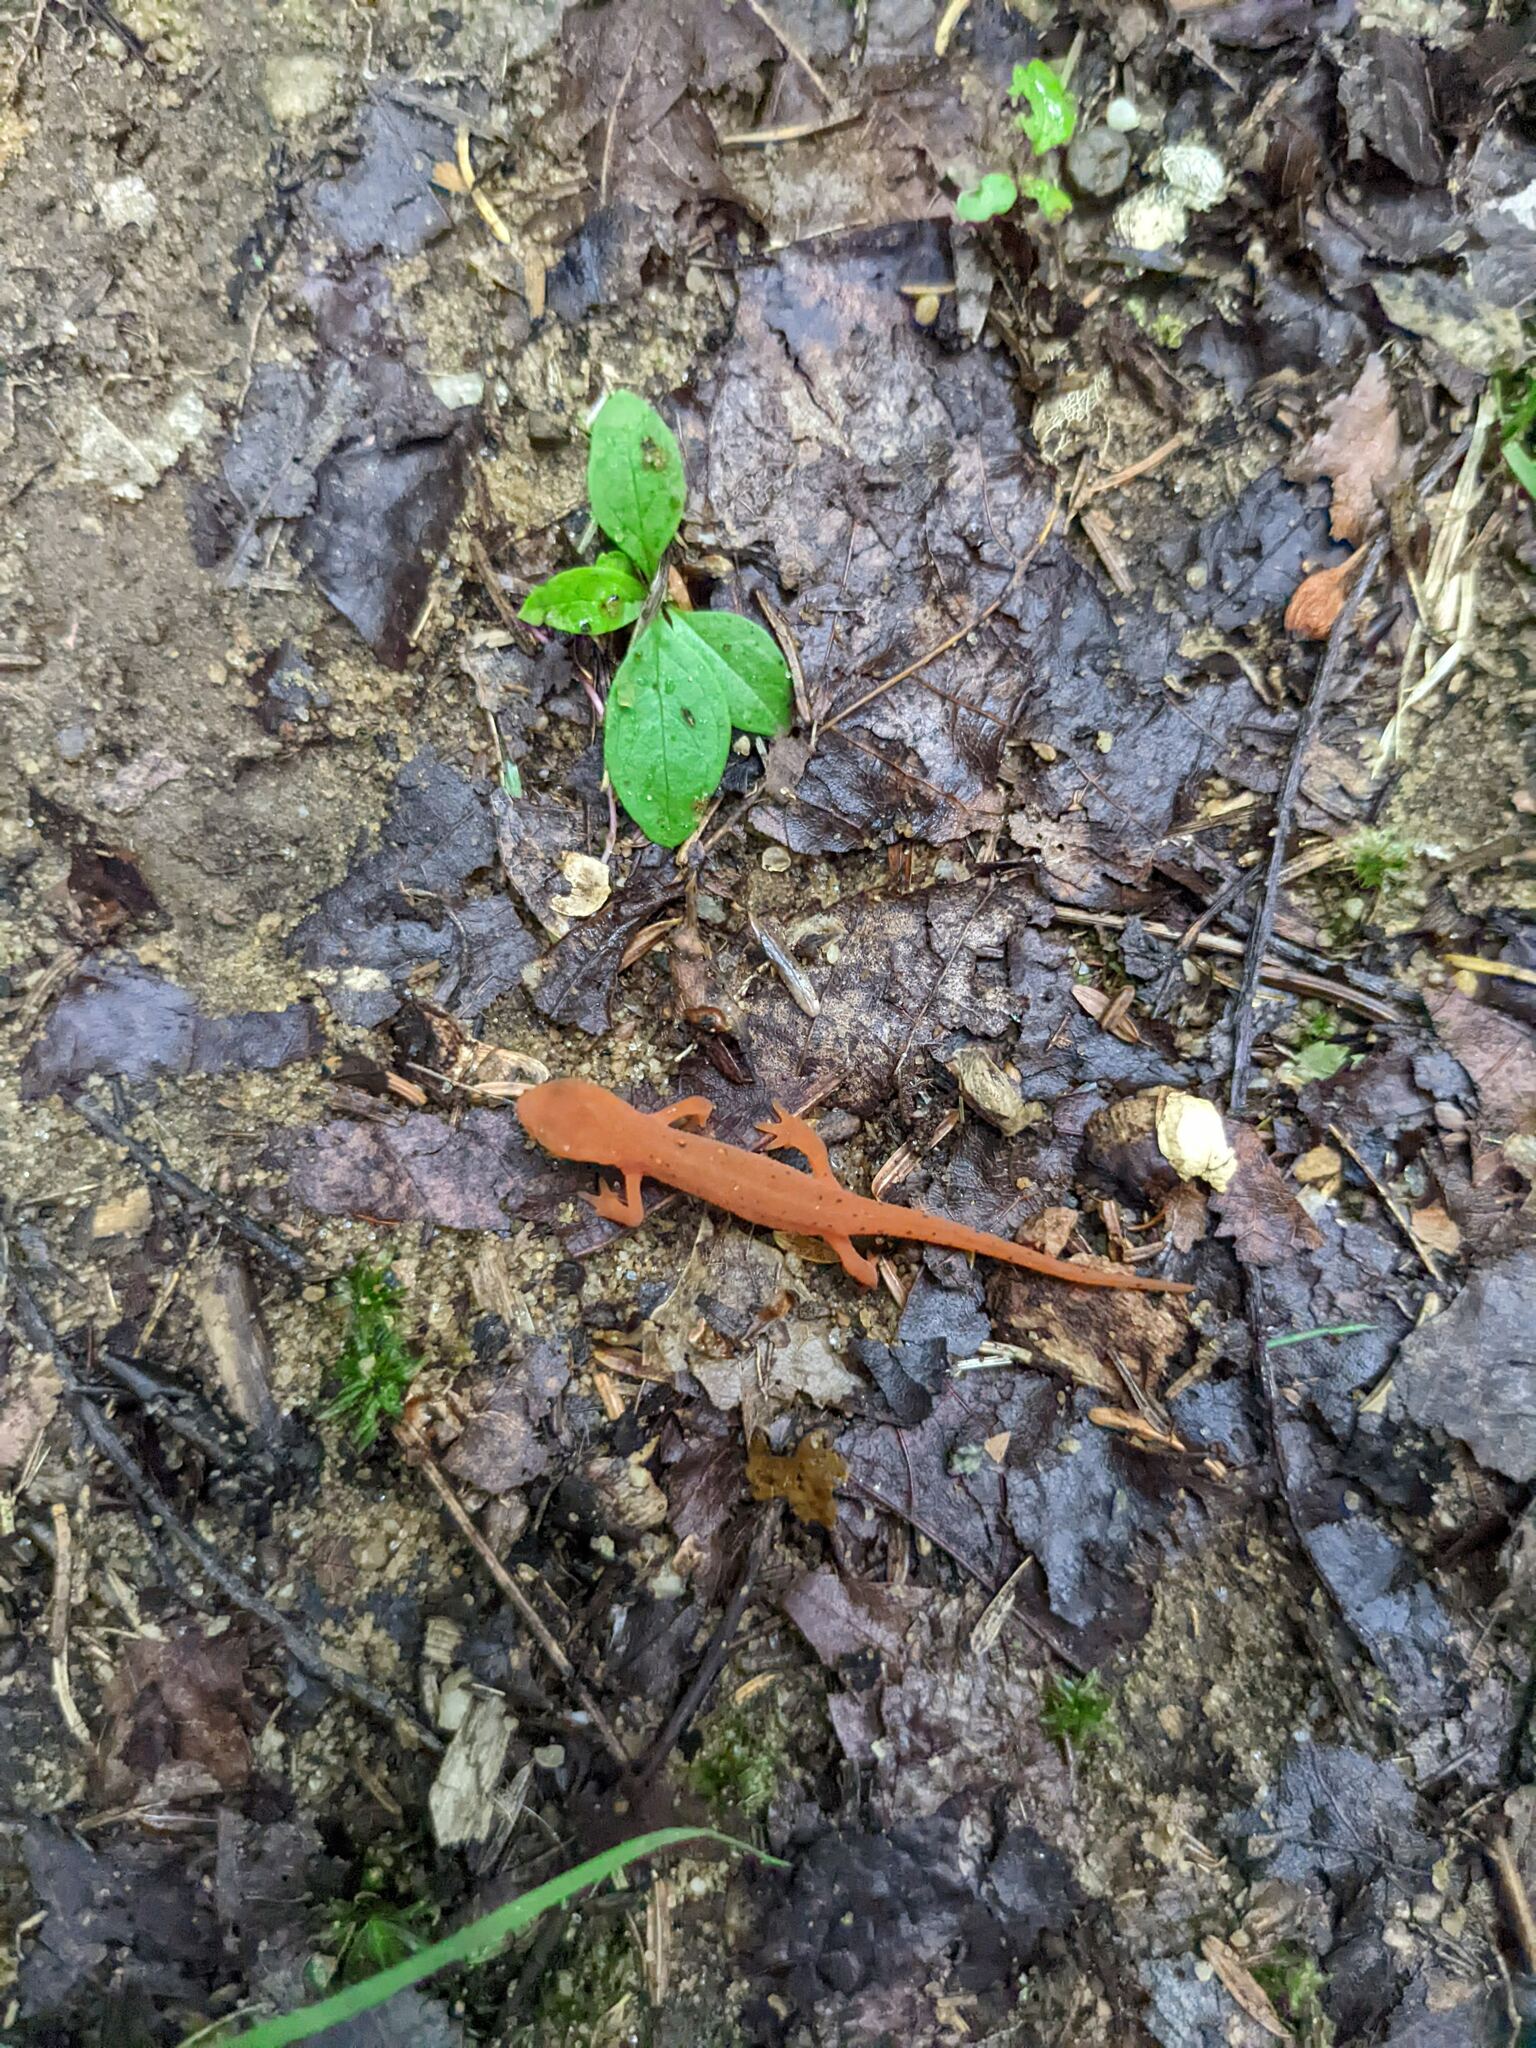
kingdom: Animalia
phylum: Chordata
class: Amphibia
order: Caudata
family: Salamandridae
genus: Notophthalmus
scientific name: Notophthalmus viridescens
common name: Eastern newt
